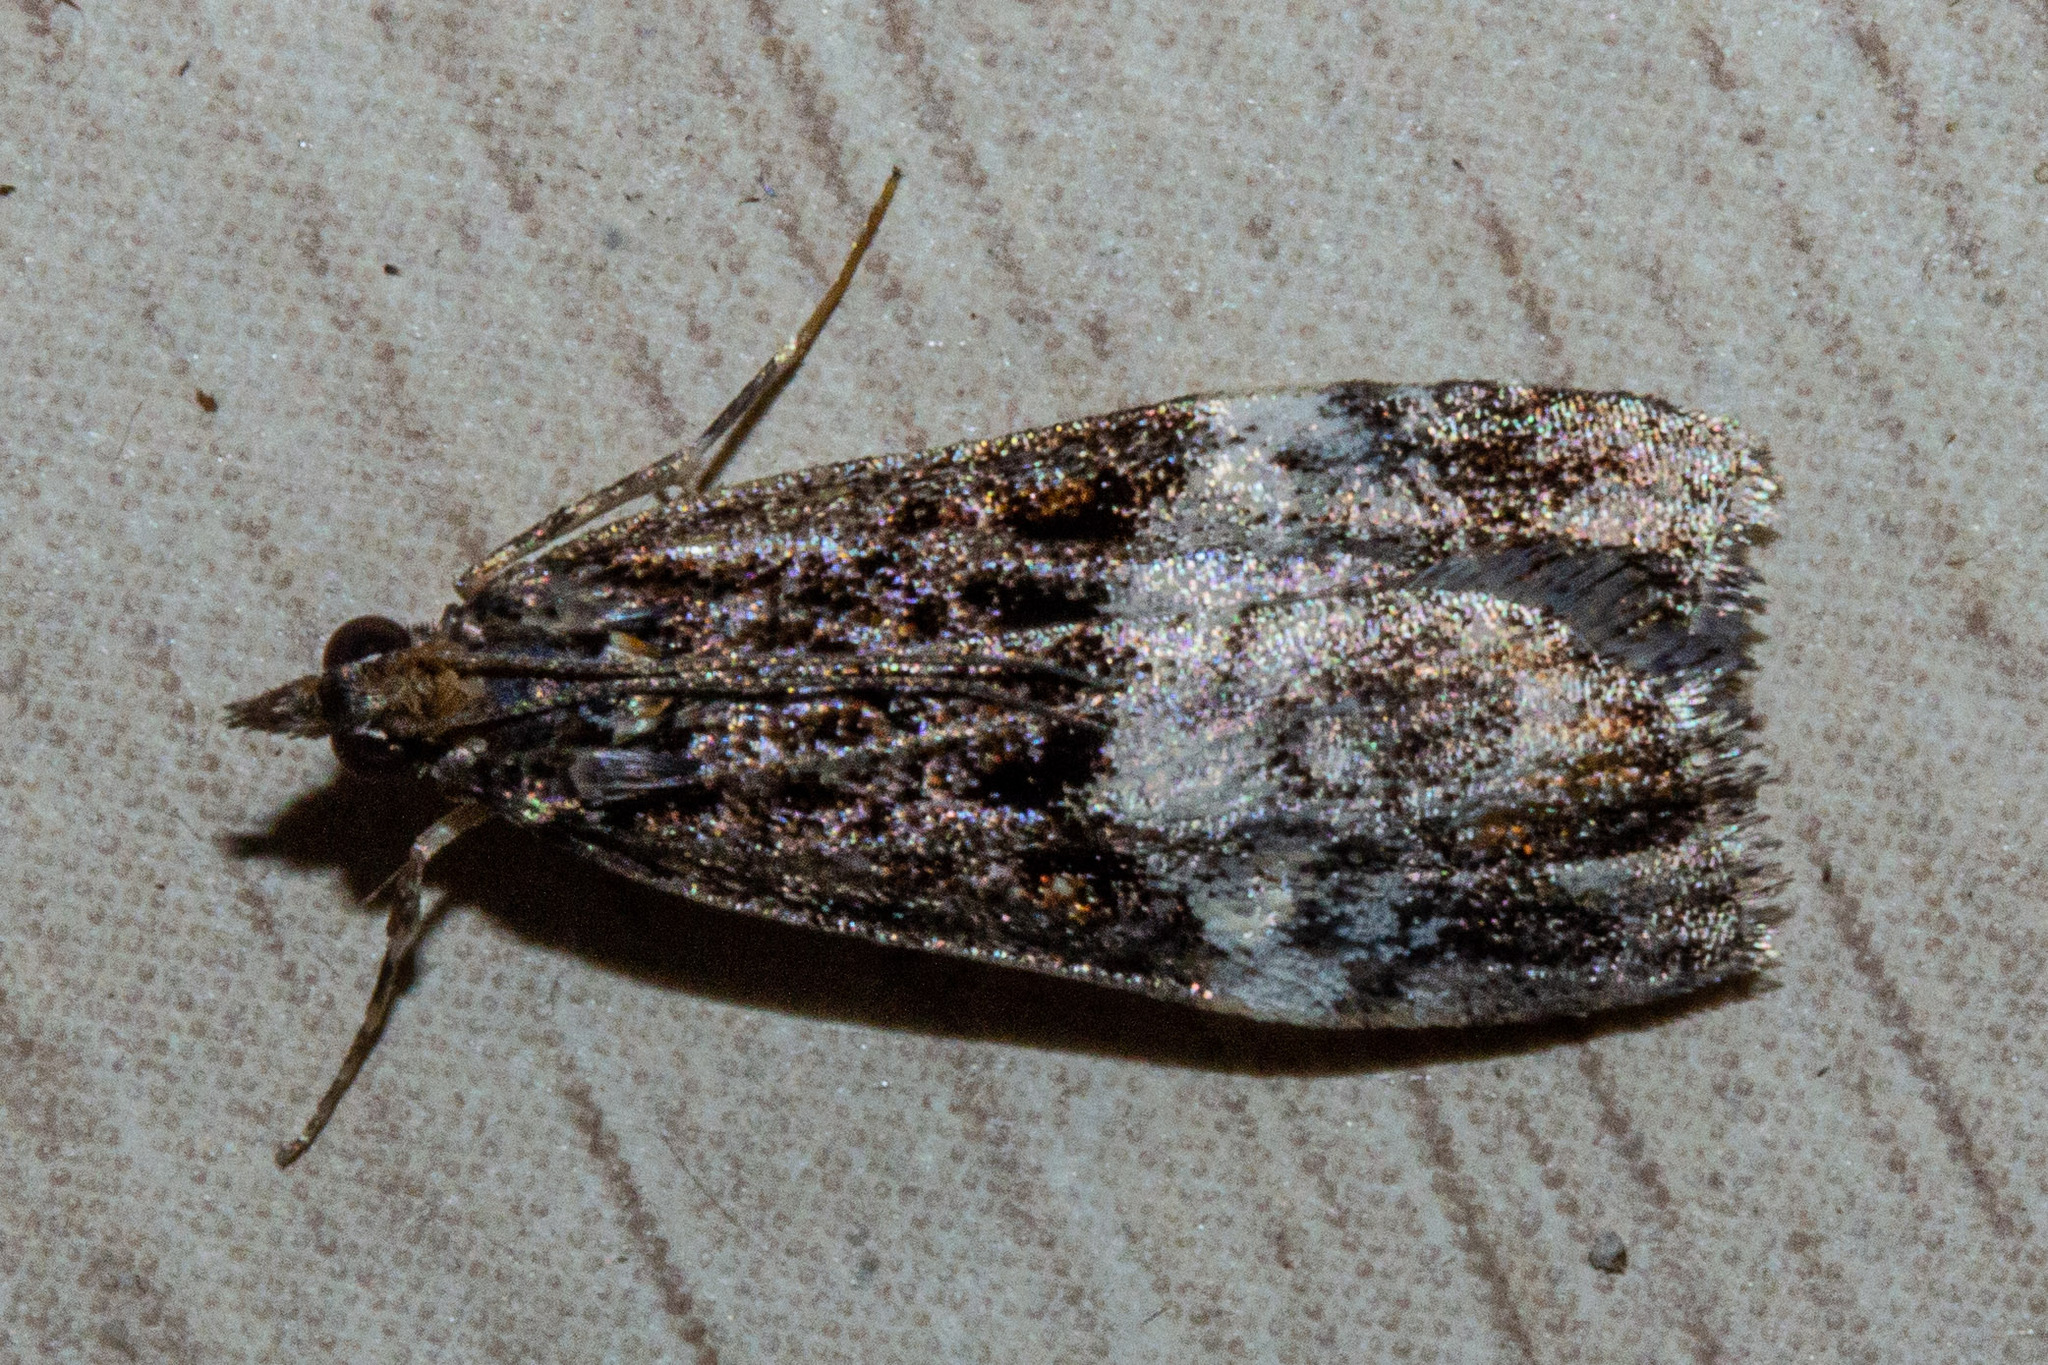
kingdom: Animalia
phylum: Arthropoda
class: Insecta
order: Lepidoptera
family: Crambidae
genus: Scoparia
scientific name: Scoparia minusculalis
